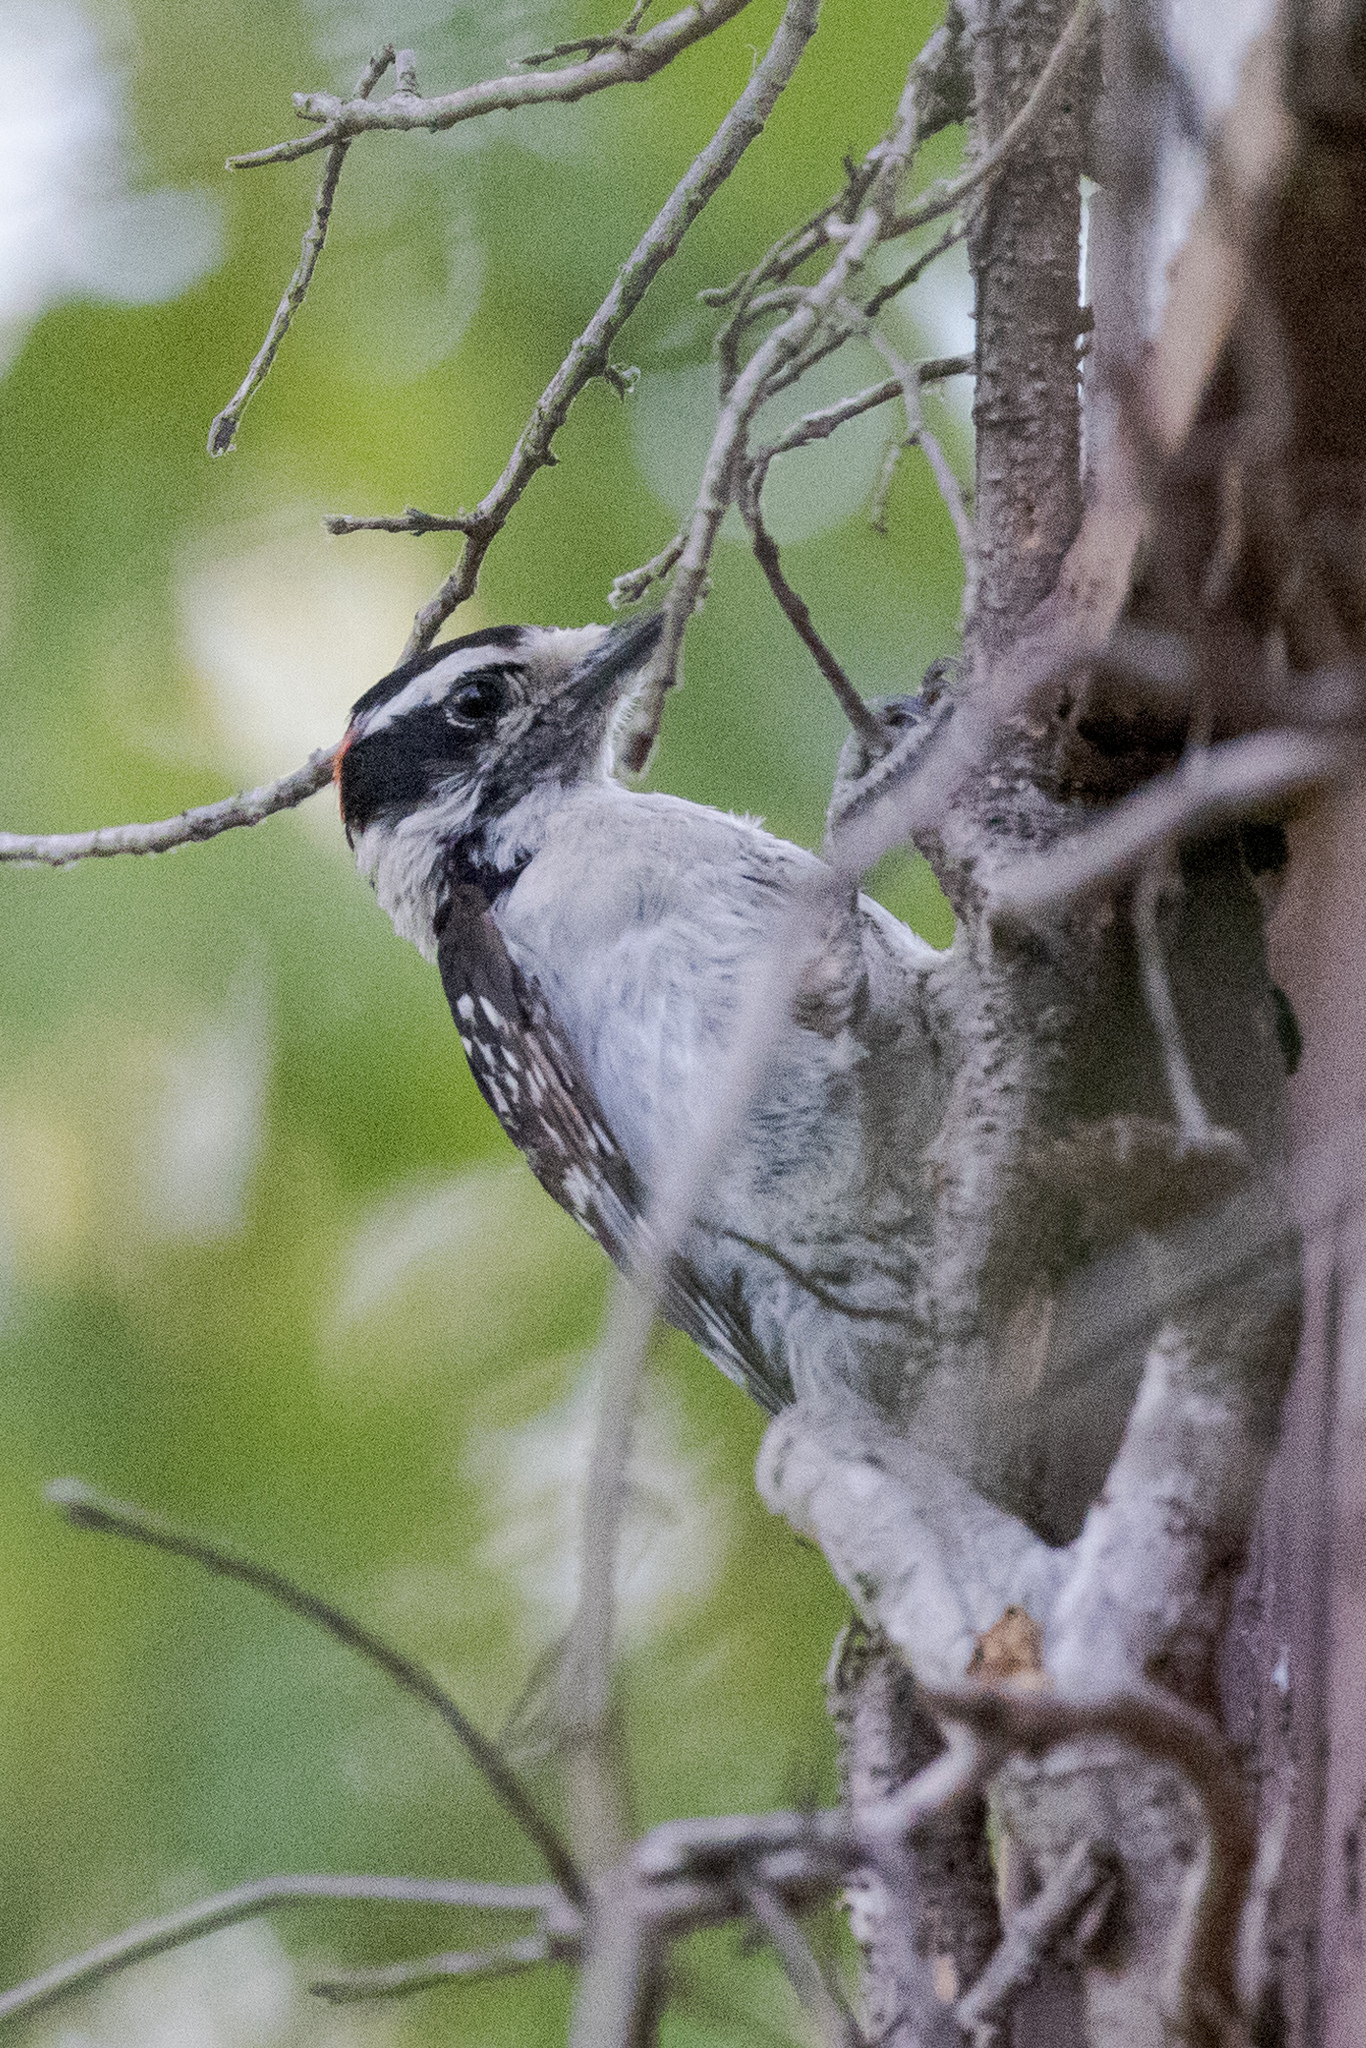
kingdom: Animalia
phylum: Chordata
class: Aves
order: Piciformes
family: Picidae
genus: Dryobates
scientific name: Dryobates pubescens
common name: Downy woodpecker
